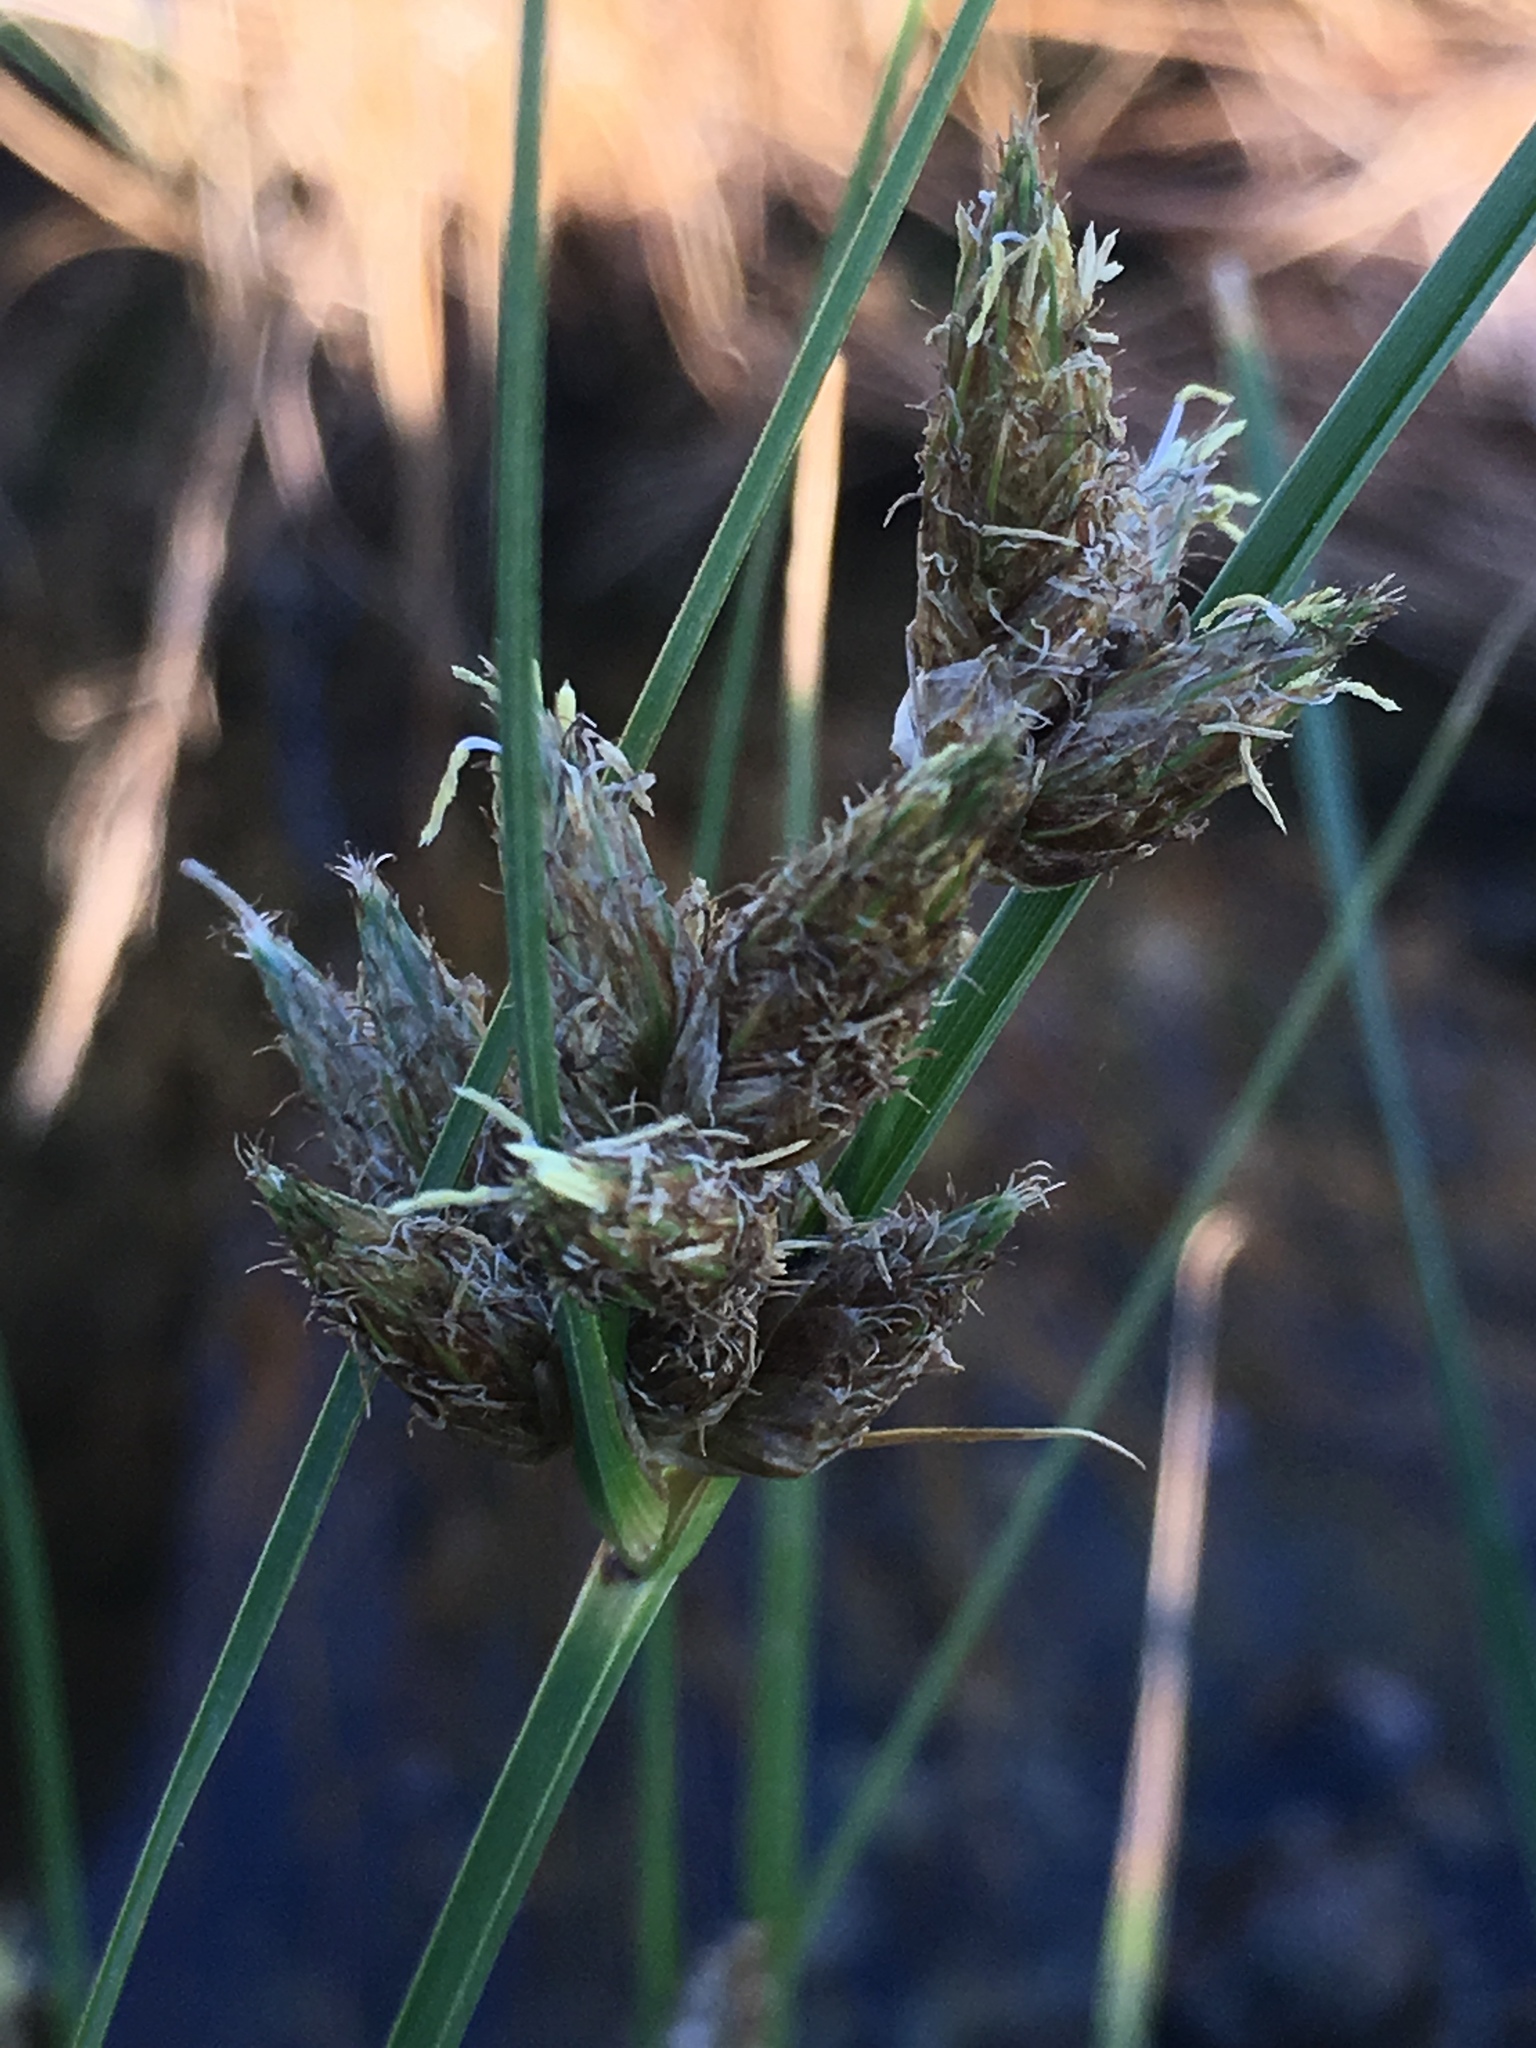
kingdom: Plantae
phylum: Tracheophyta
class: Liliopsida
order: Poales
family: Cyperaceae
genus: Bolboschoenus
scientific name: Bolboschoenus maritimus
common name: Sea club-rush
